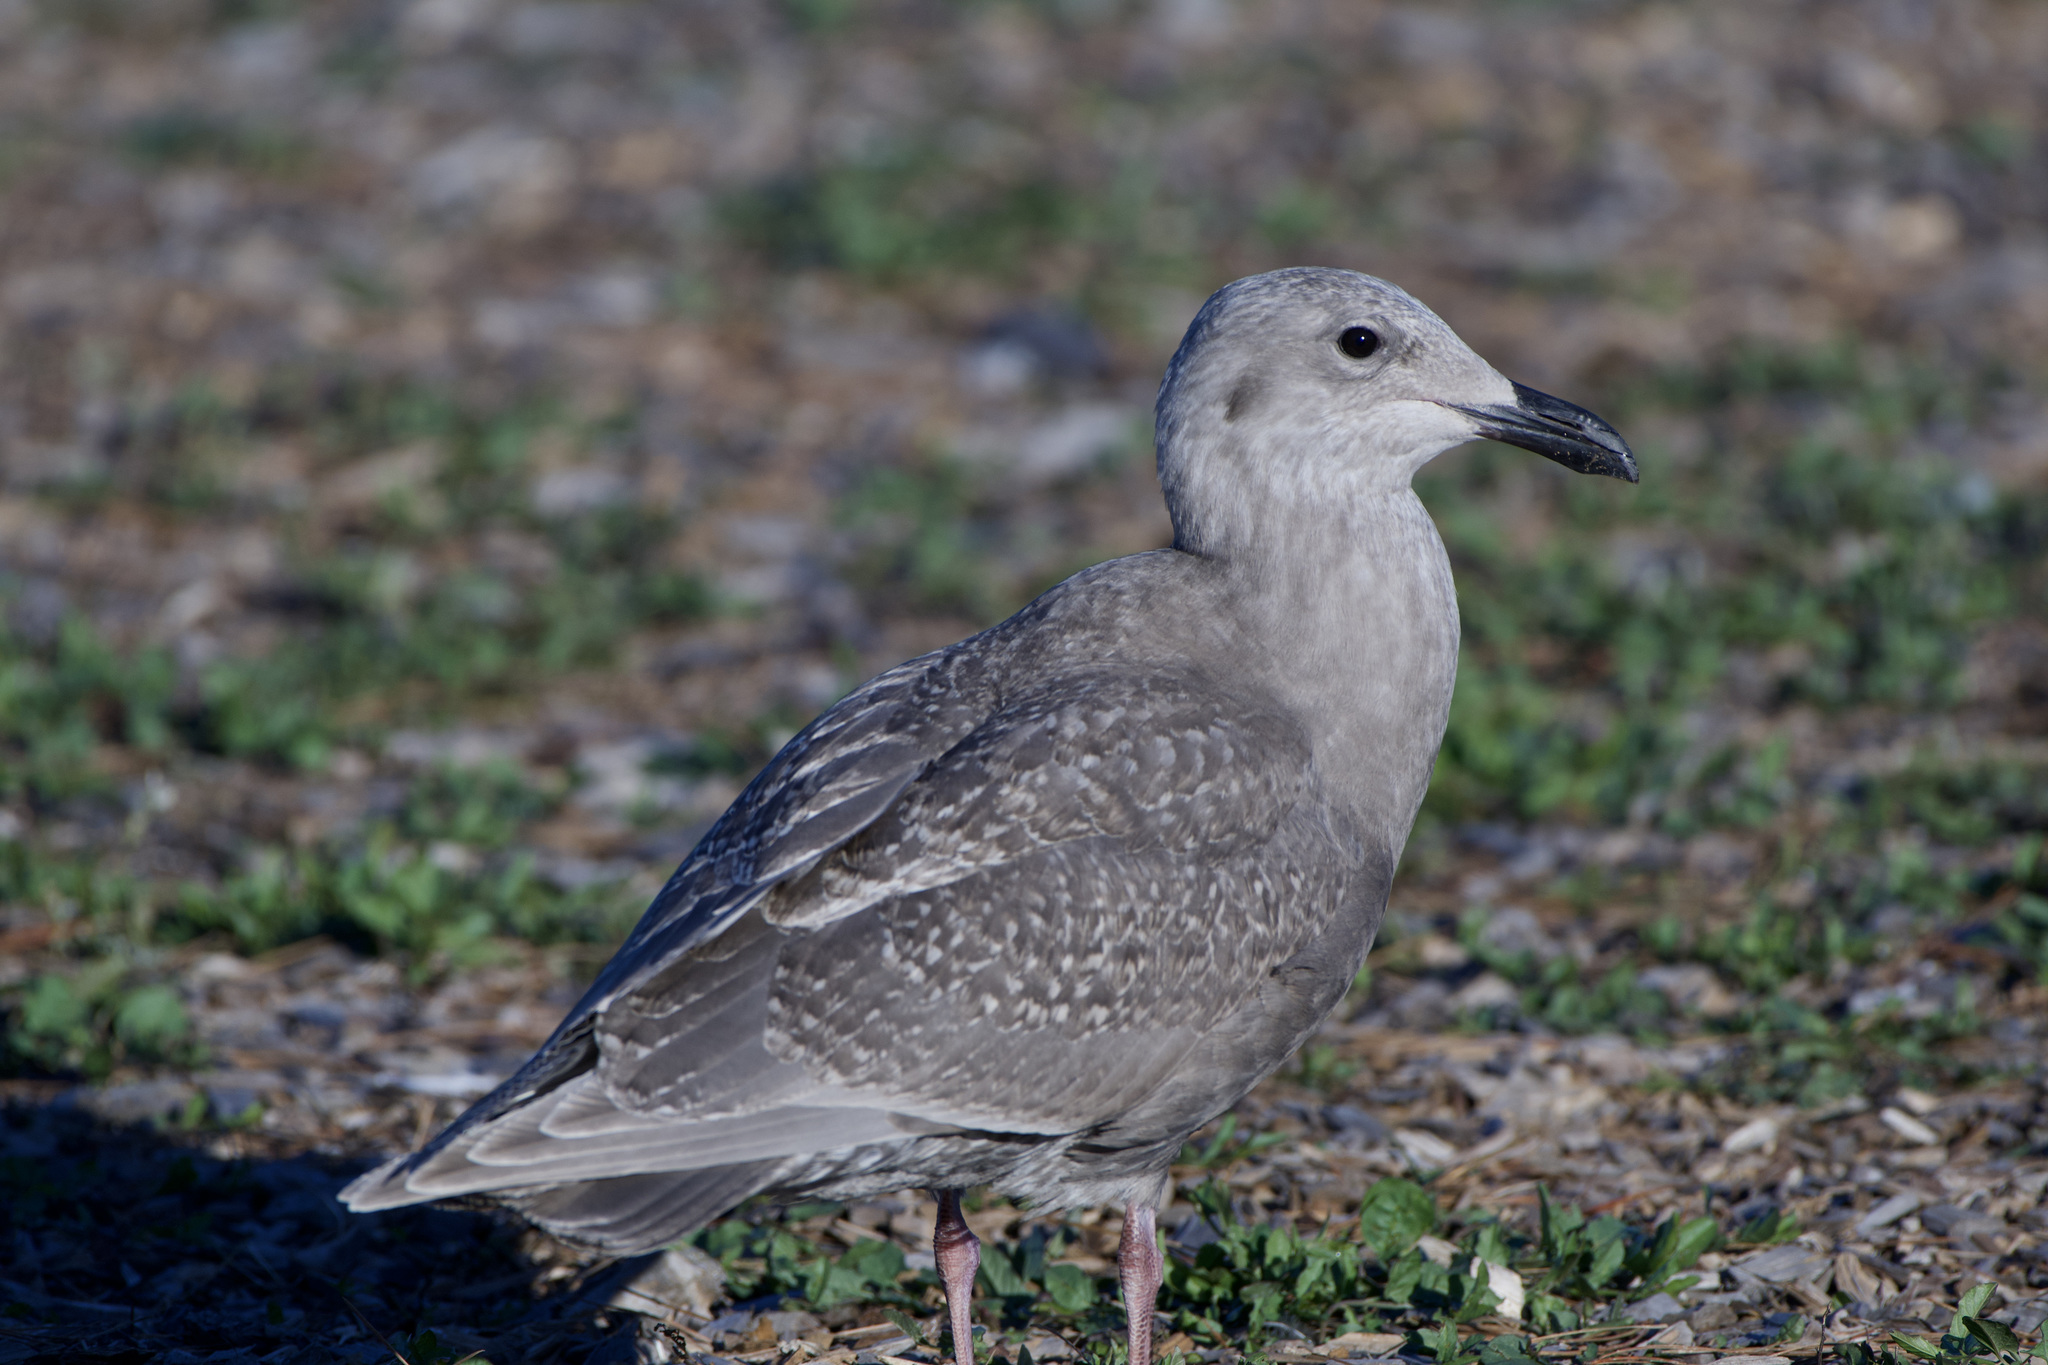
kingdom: Animalia
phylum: Chordata
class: Aves
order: Charadriiformes
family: Laridae
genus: Larus
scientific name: Larus glaucescens
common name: Glaucous-winged gull
